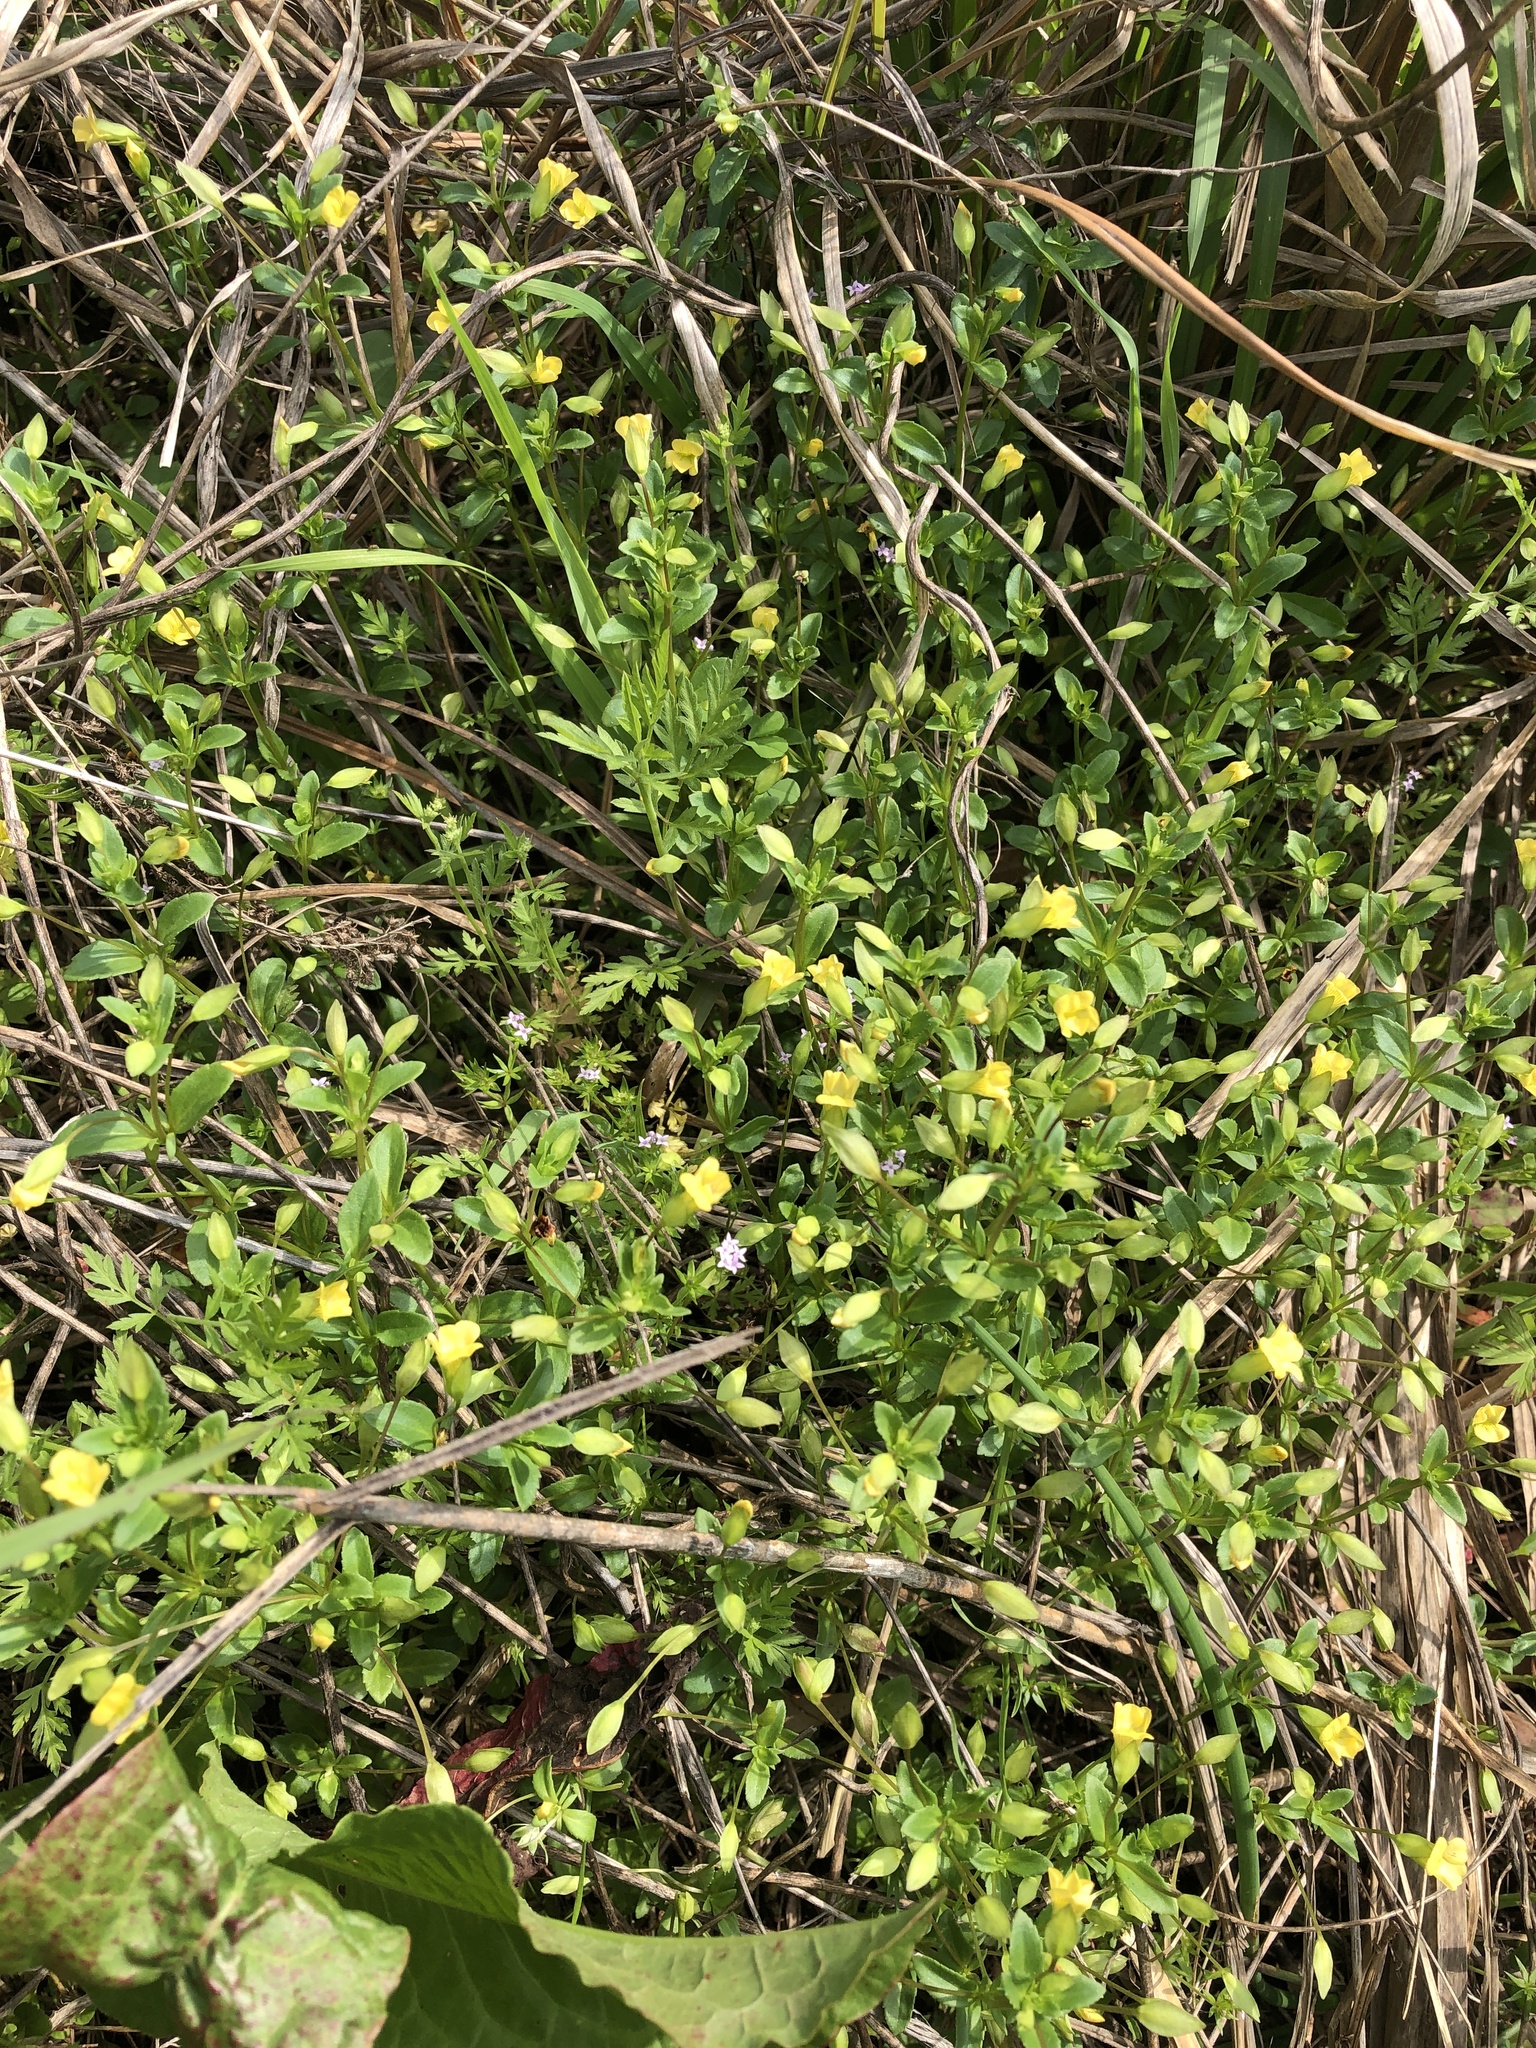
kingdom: Plantae
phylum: Tracheophyta
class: Magnoliopsida
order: Lamiales
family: Plantaginaceae
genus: Mecardonia
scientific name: Mecardonia procumbens
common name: Baby jump-up
